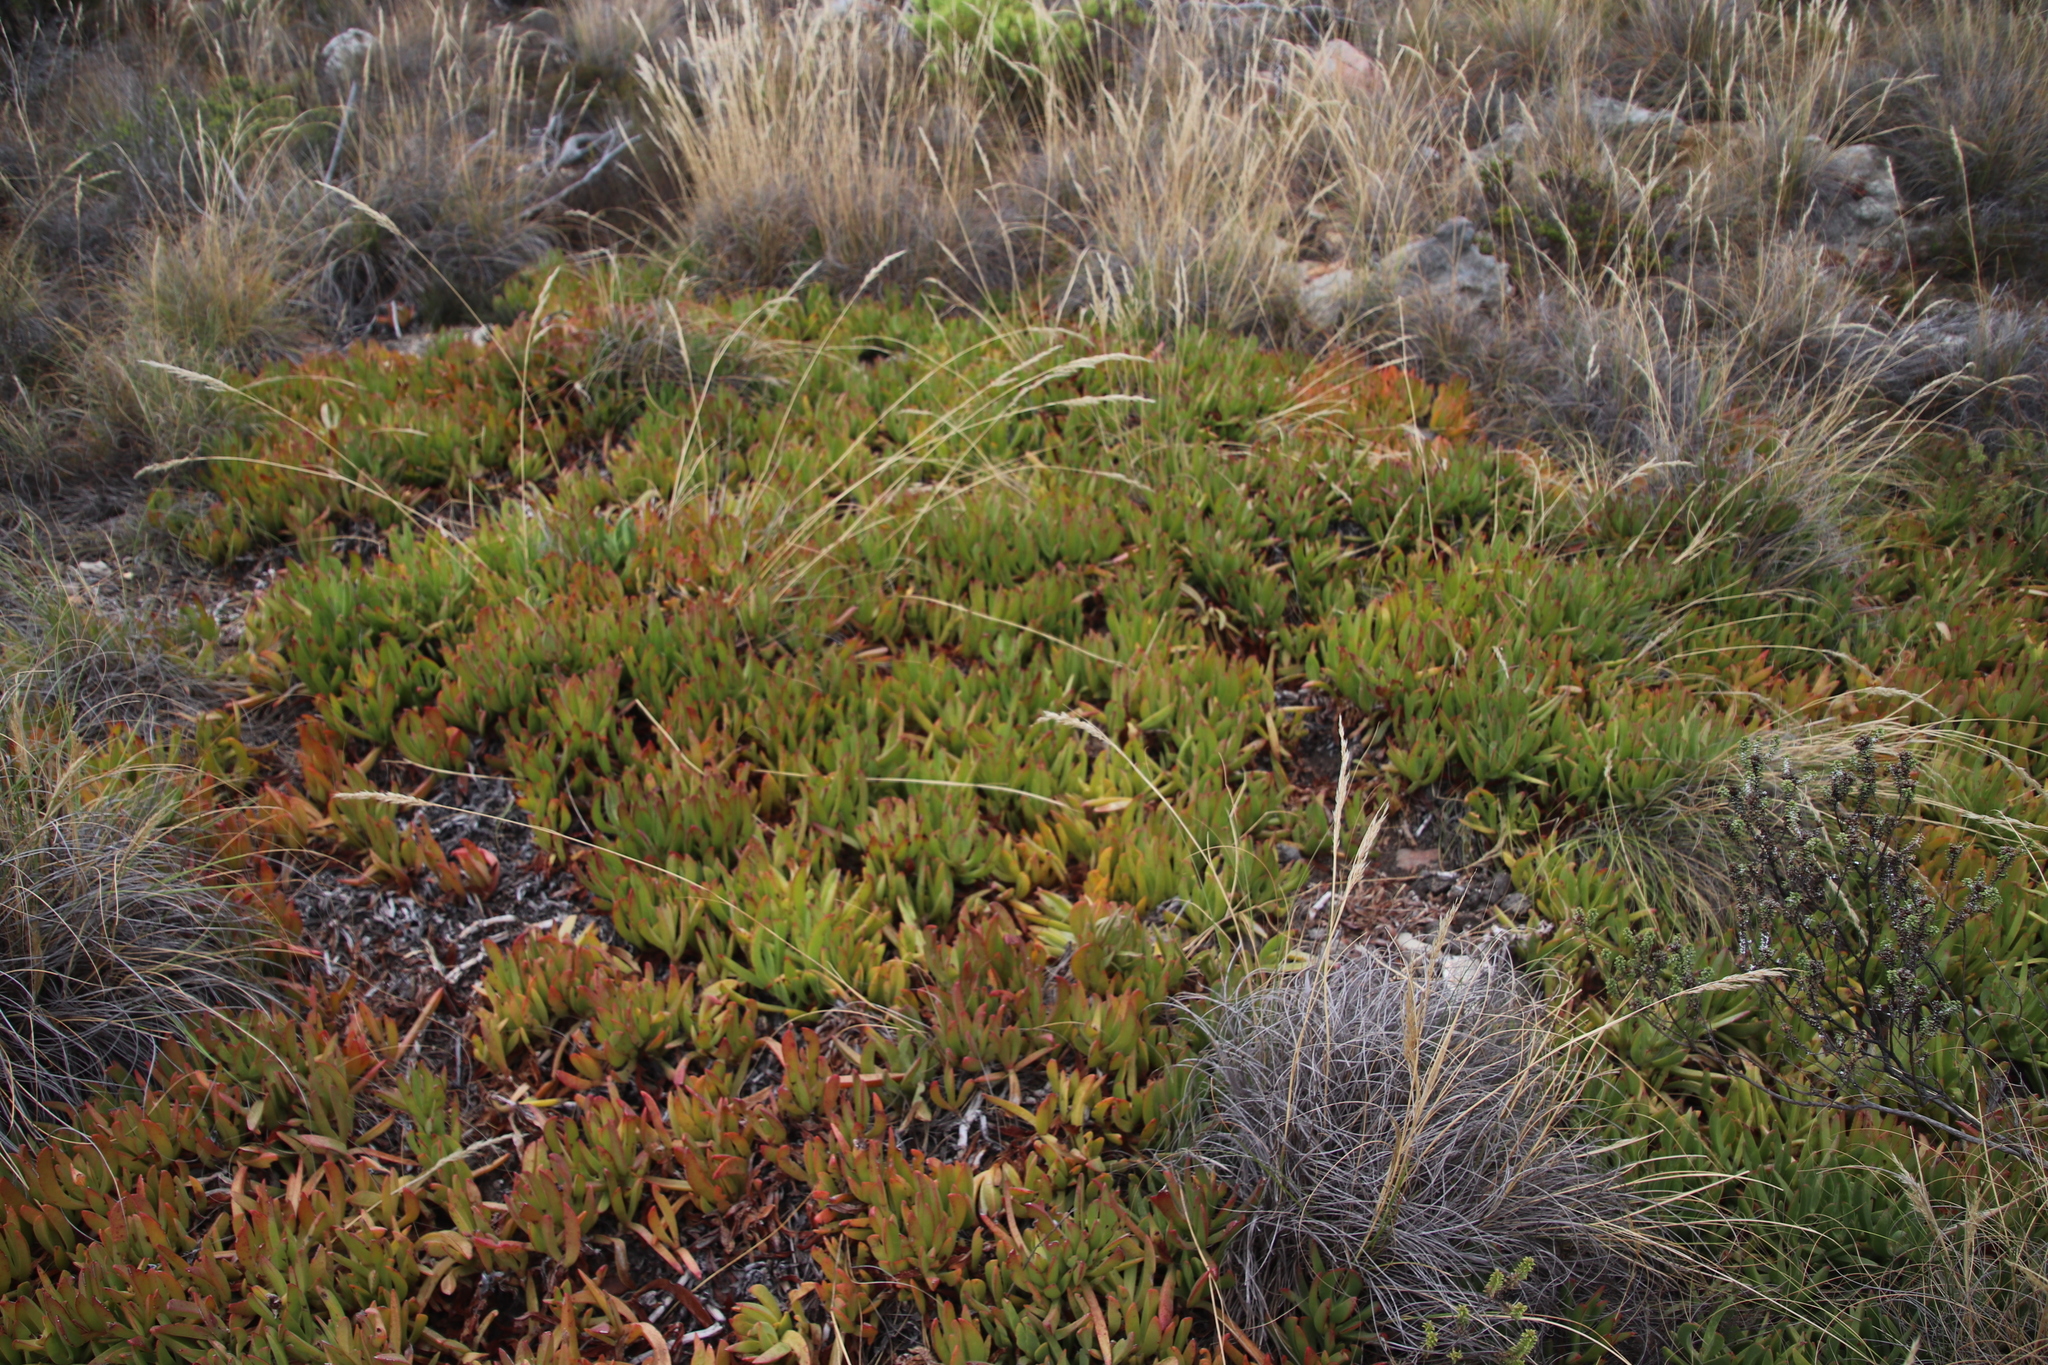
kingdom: Plantae
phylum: Tracheophyta
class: Magnoliopsida
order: Caryophyllales
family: Aizoaceae
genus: Carpobrotus
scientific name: Carpobrotus mellei
